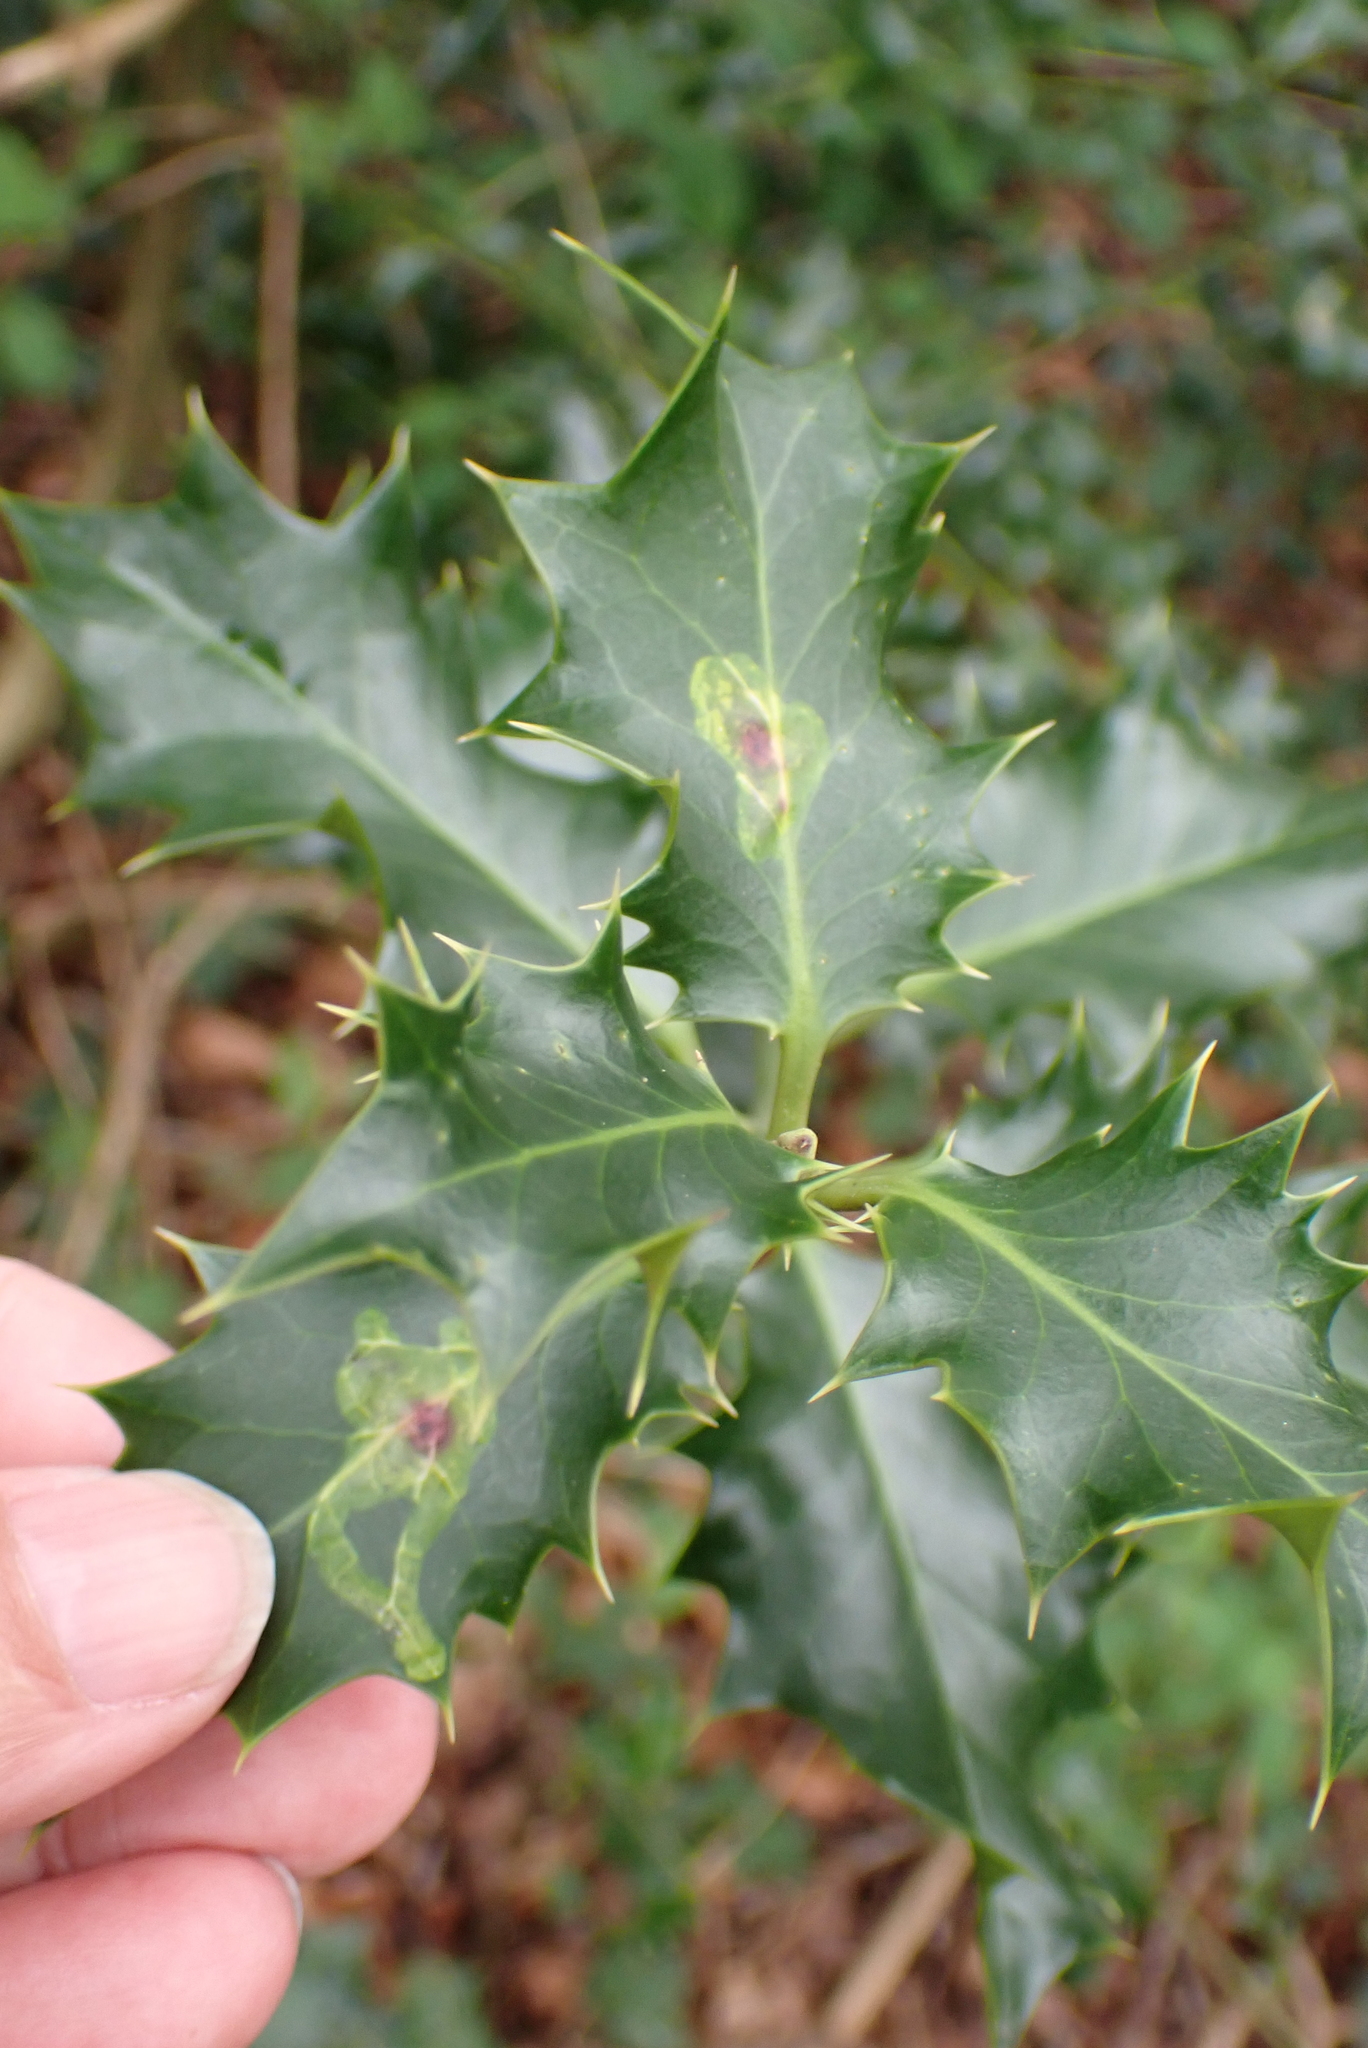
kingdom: Plantae
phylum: Tracheophyta
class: Magnoliopsida
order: Aquifoliales
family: Aquifoliaceae
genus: Ilex
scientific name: Ilex aquifolium
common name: English holly
